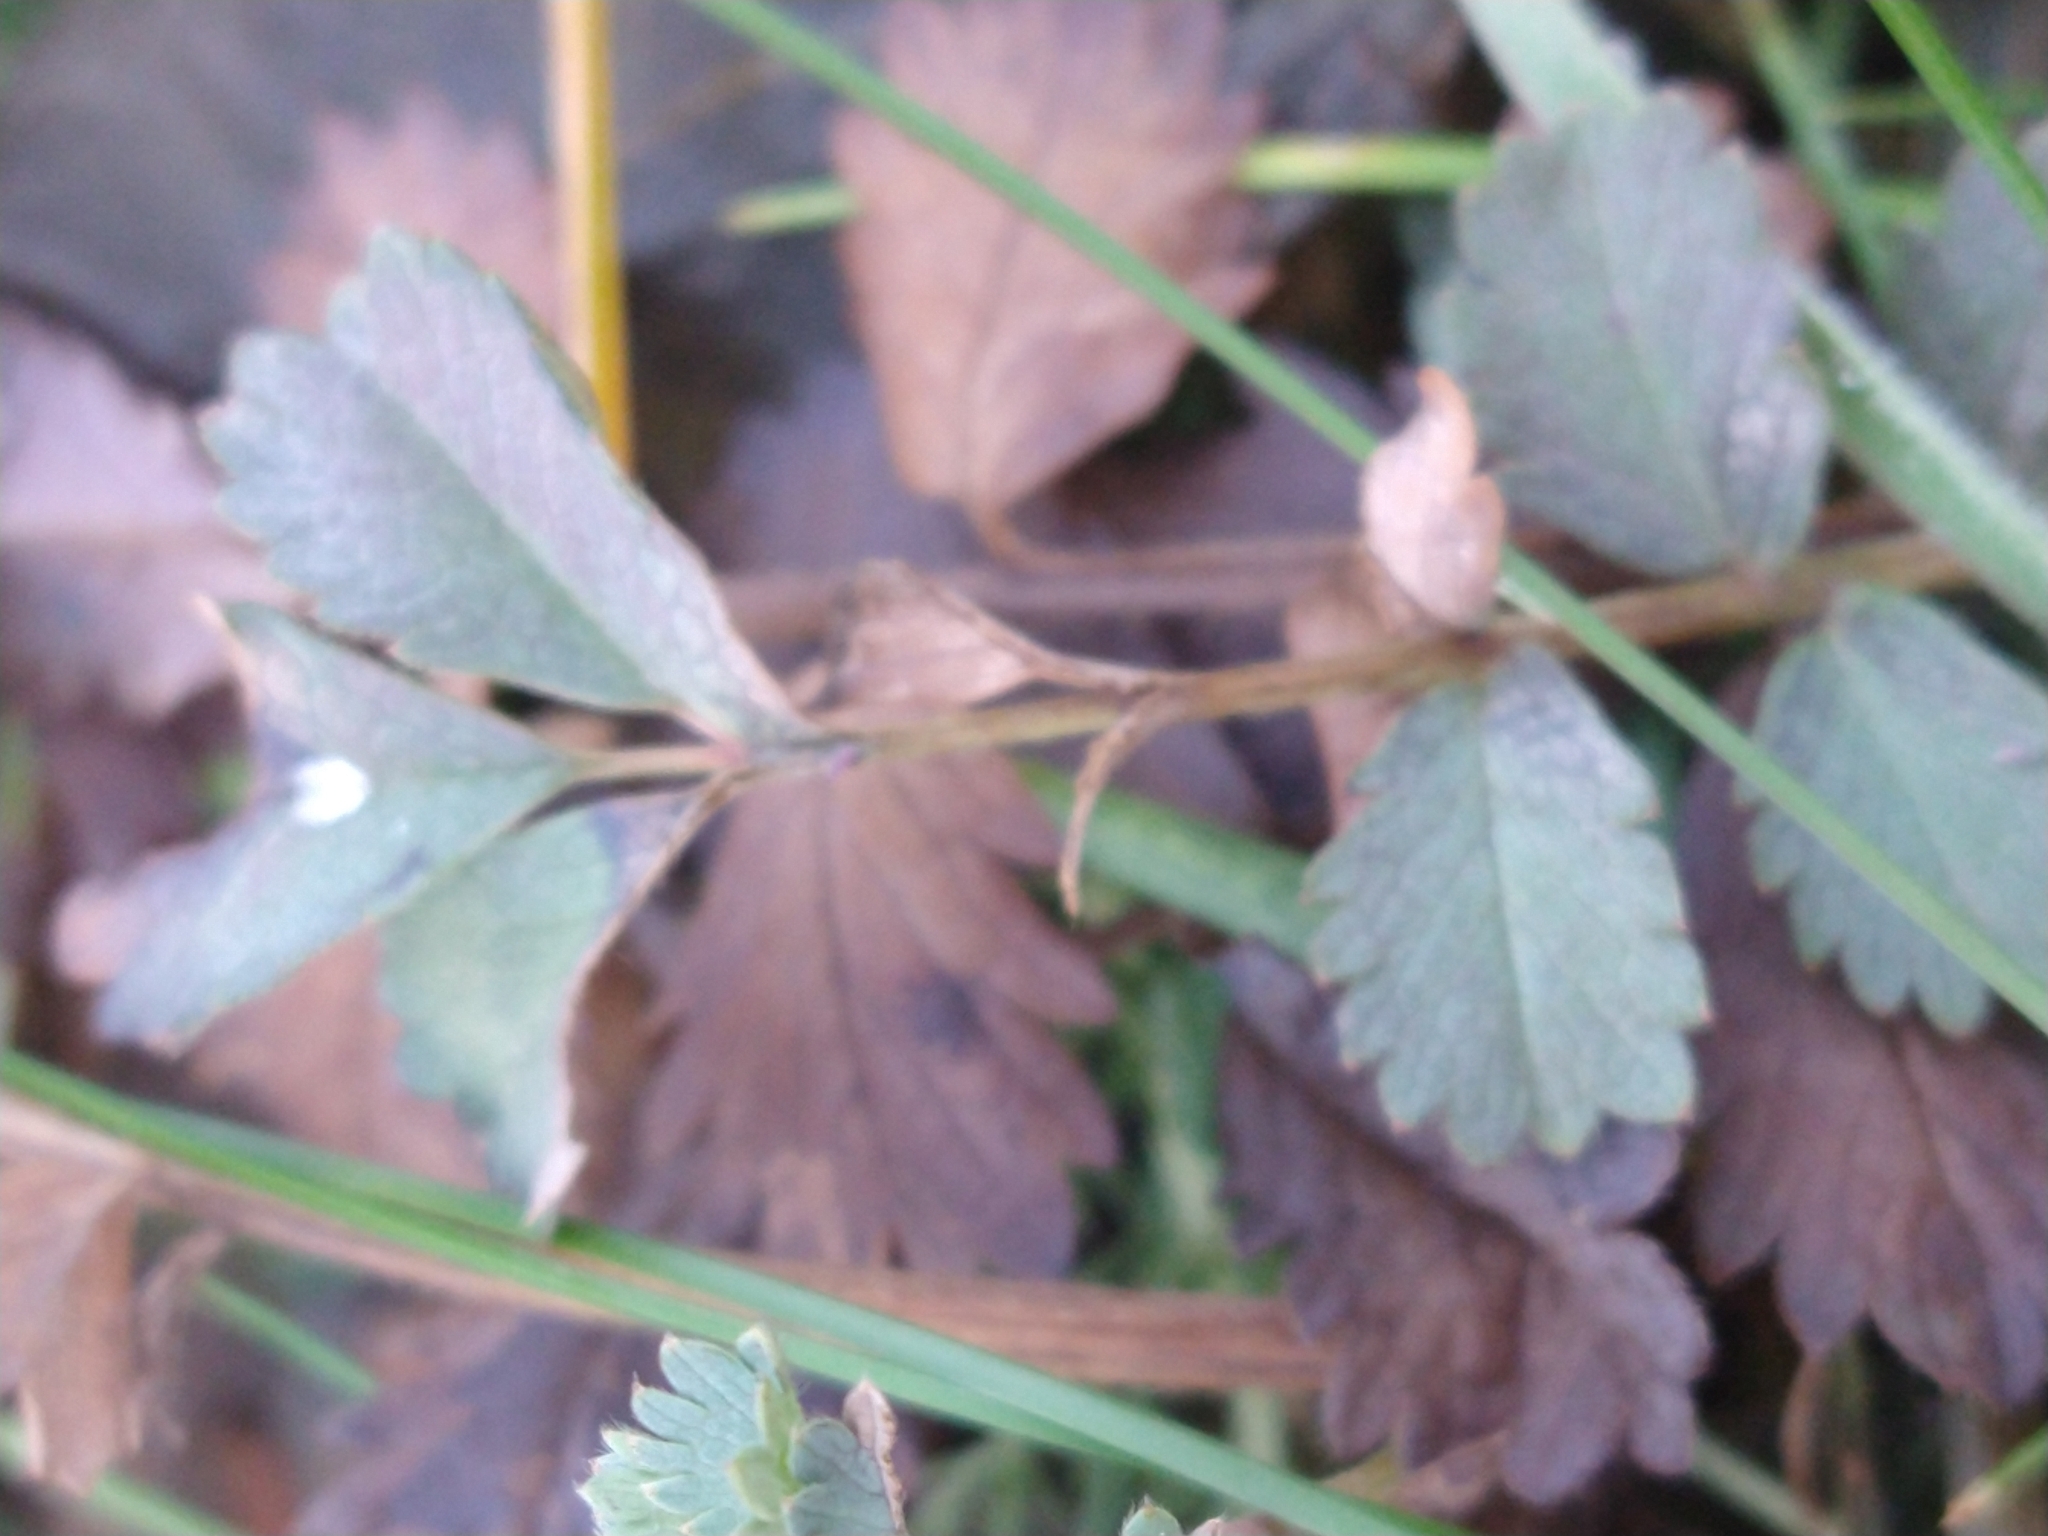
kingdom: Plantae
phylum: Tracheophyta
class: Magnoliopsida
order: Rosales
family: Rosaceae
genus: Acaena
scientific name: Acaena magellanica
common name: New zealand burr
